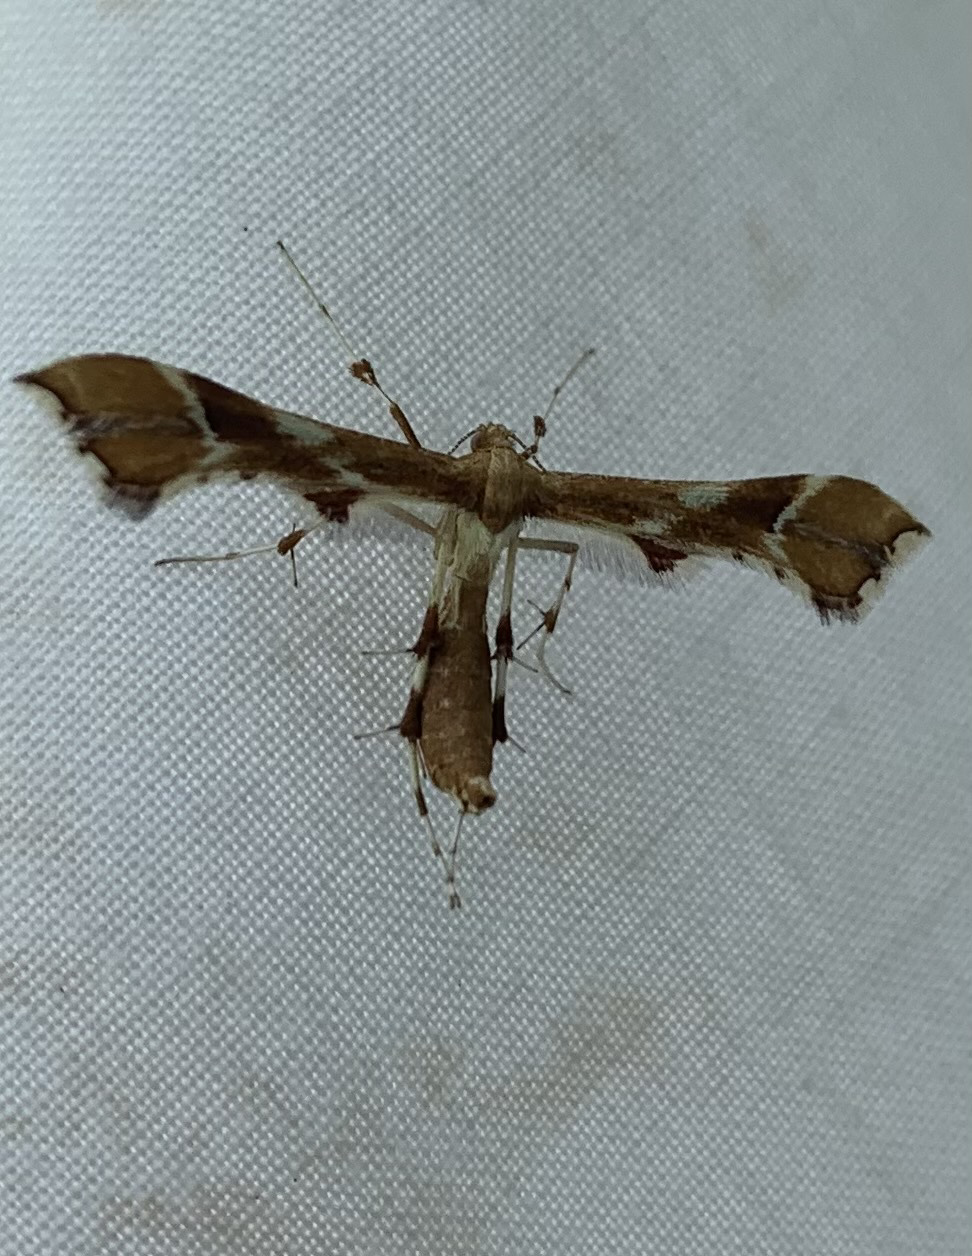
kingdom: Animalia
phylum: Arthropoda
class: Insecta
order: Lepidoptera
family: Pterophoridae
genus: Cnaemidophorus
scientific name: Cnaemidophorus rhododactyla
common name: Rose plume
